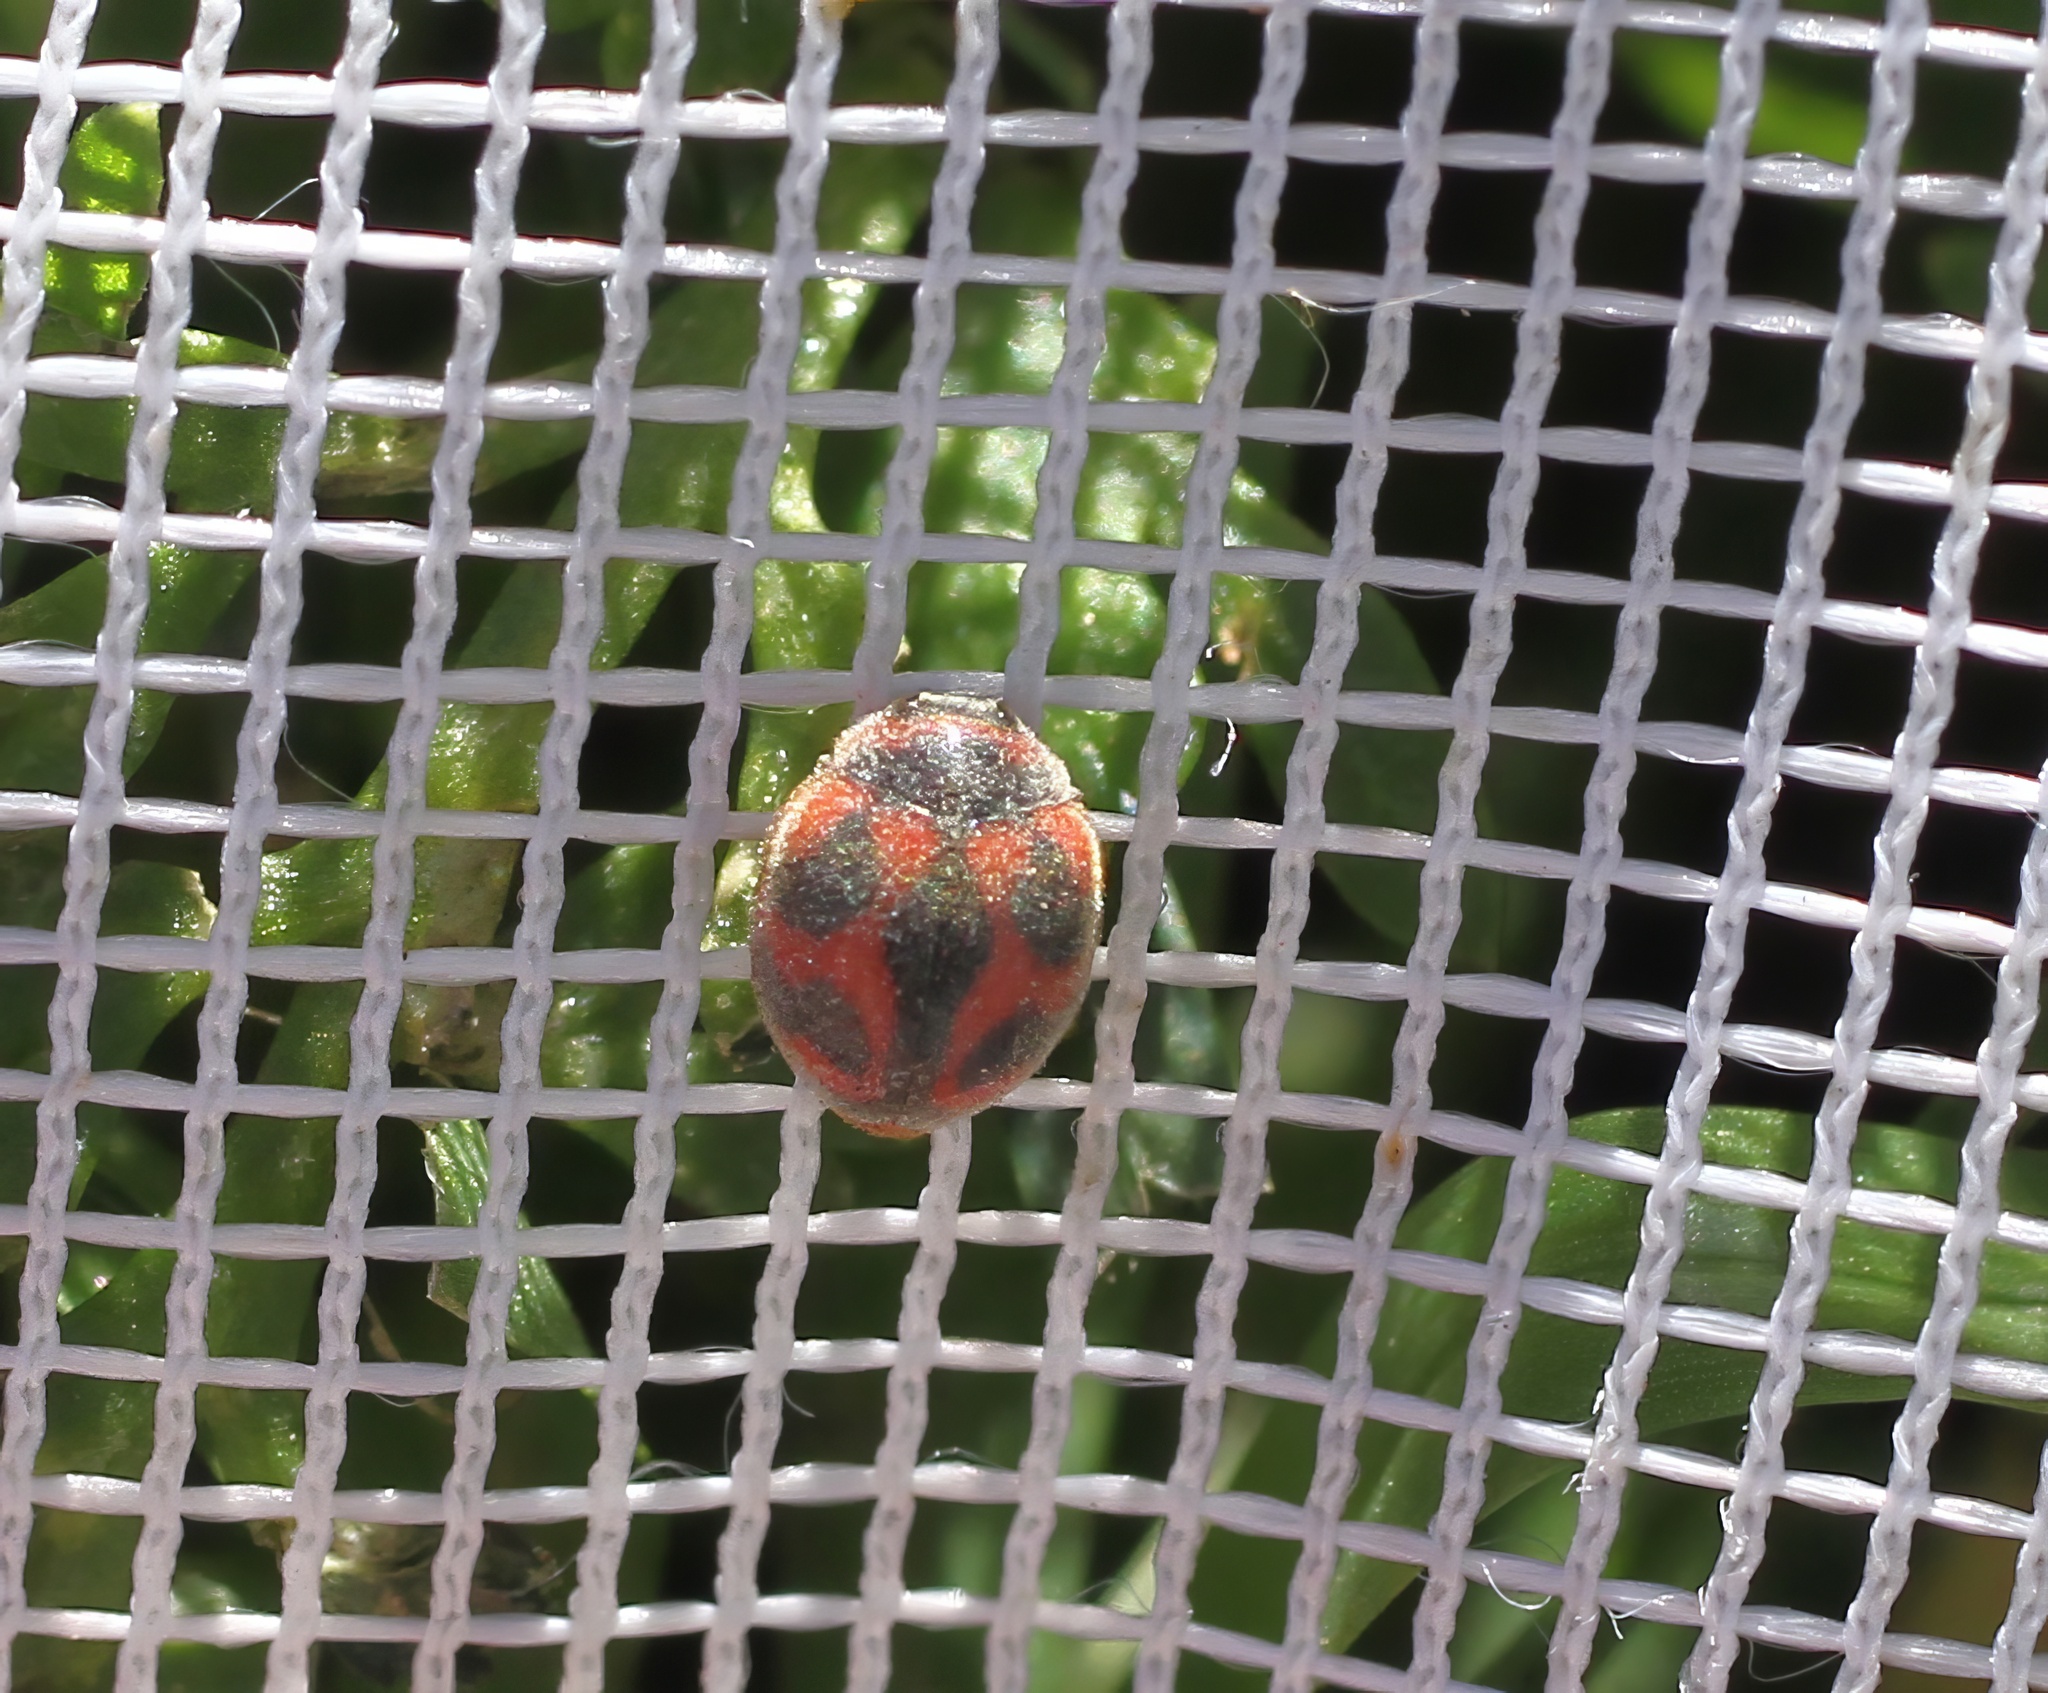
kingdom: Animalia
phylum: Arthropoda
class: Insecta
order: Coleoptera
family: Coccinellidae
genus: Novius
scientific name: Novius cardinalis
